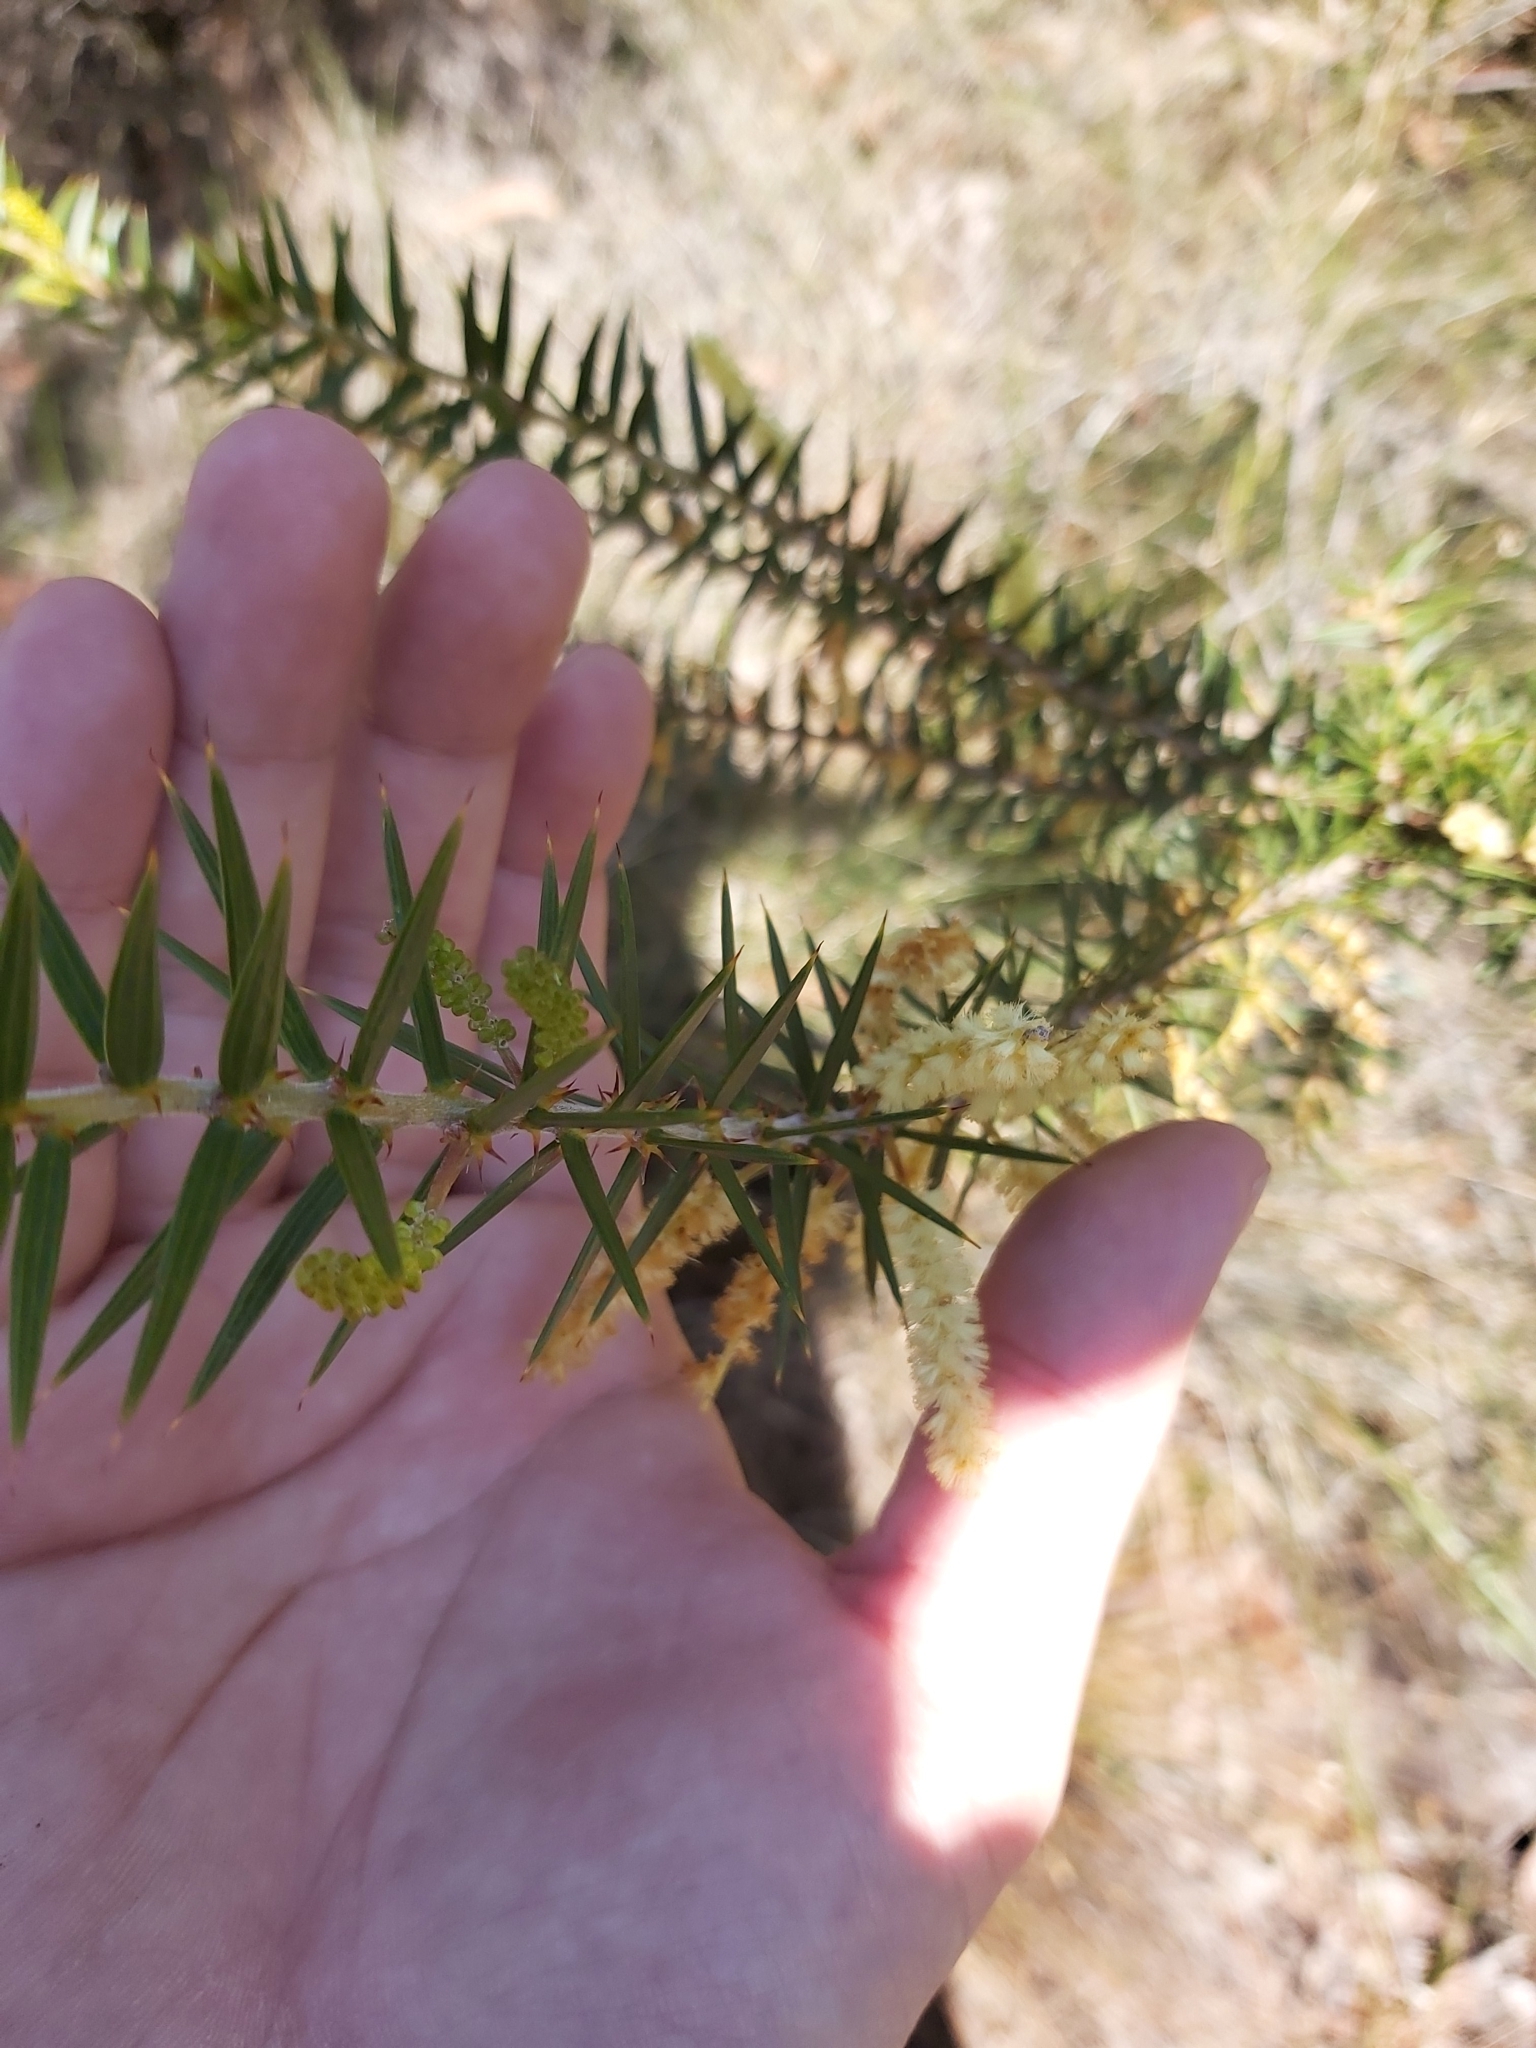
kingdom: Plantae
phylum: Tracheophyta
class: Magnoliopsida
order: Fabales
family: Fabaceae
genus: Acacia
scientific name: Acacia oxycedrus
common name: Spike wattle
